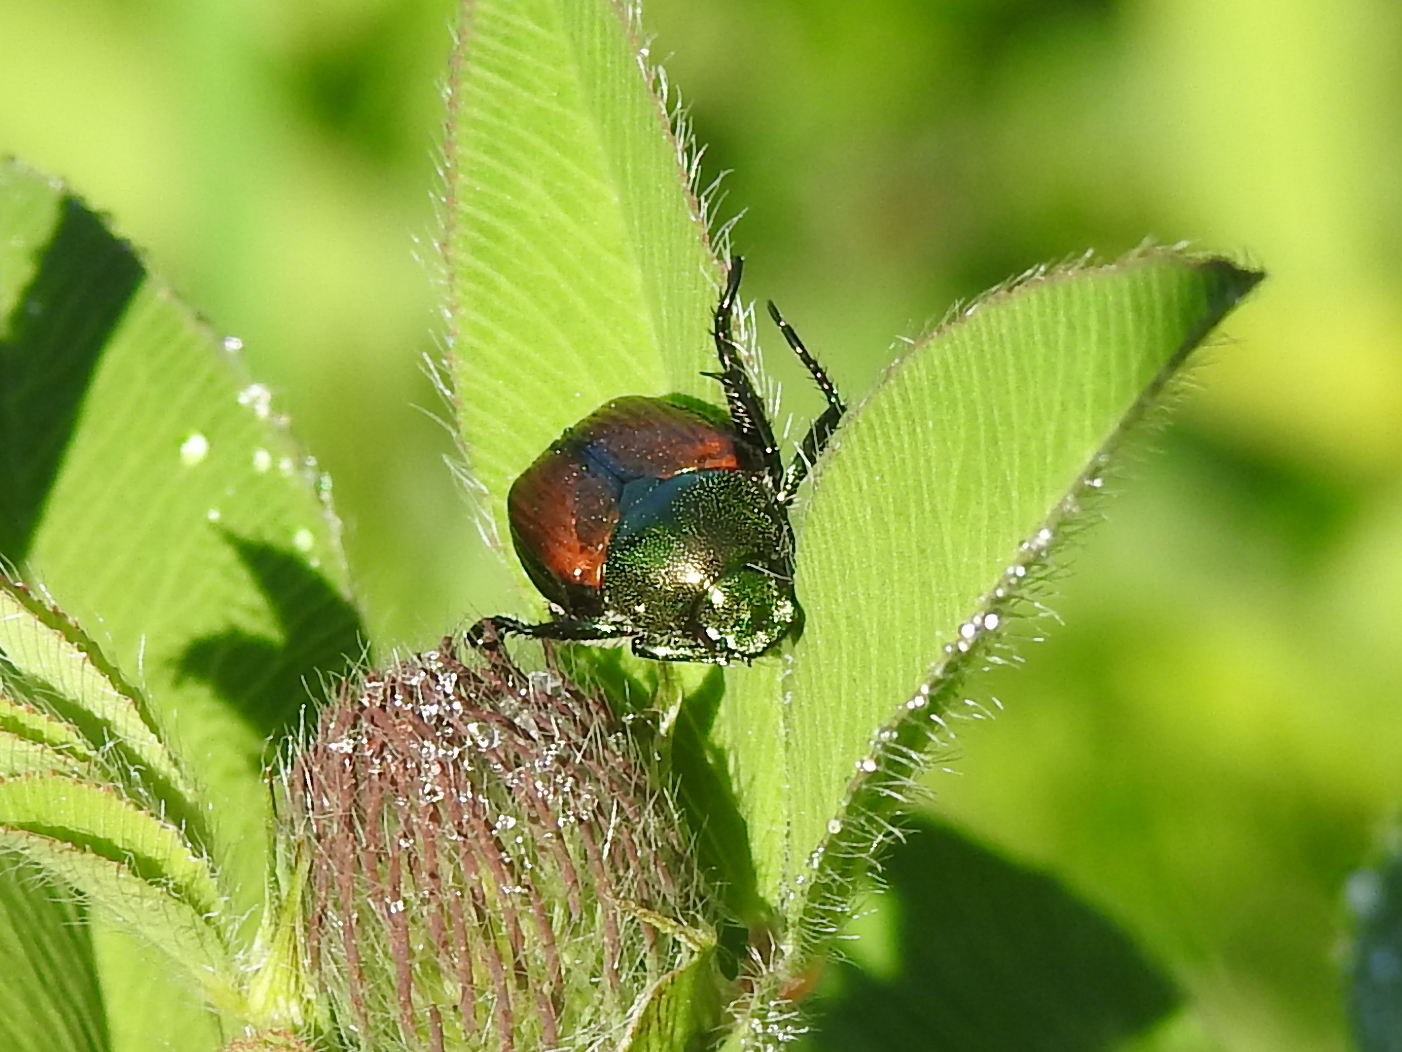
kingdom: Animalia
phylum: Arthropoda
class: Insecta
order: Coleoptera
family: Scarabaeidae
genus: Popillia
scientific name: Popillia japonica
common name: Japanese beetle
